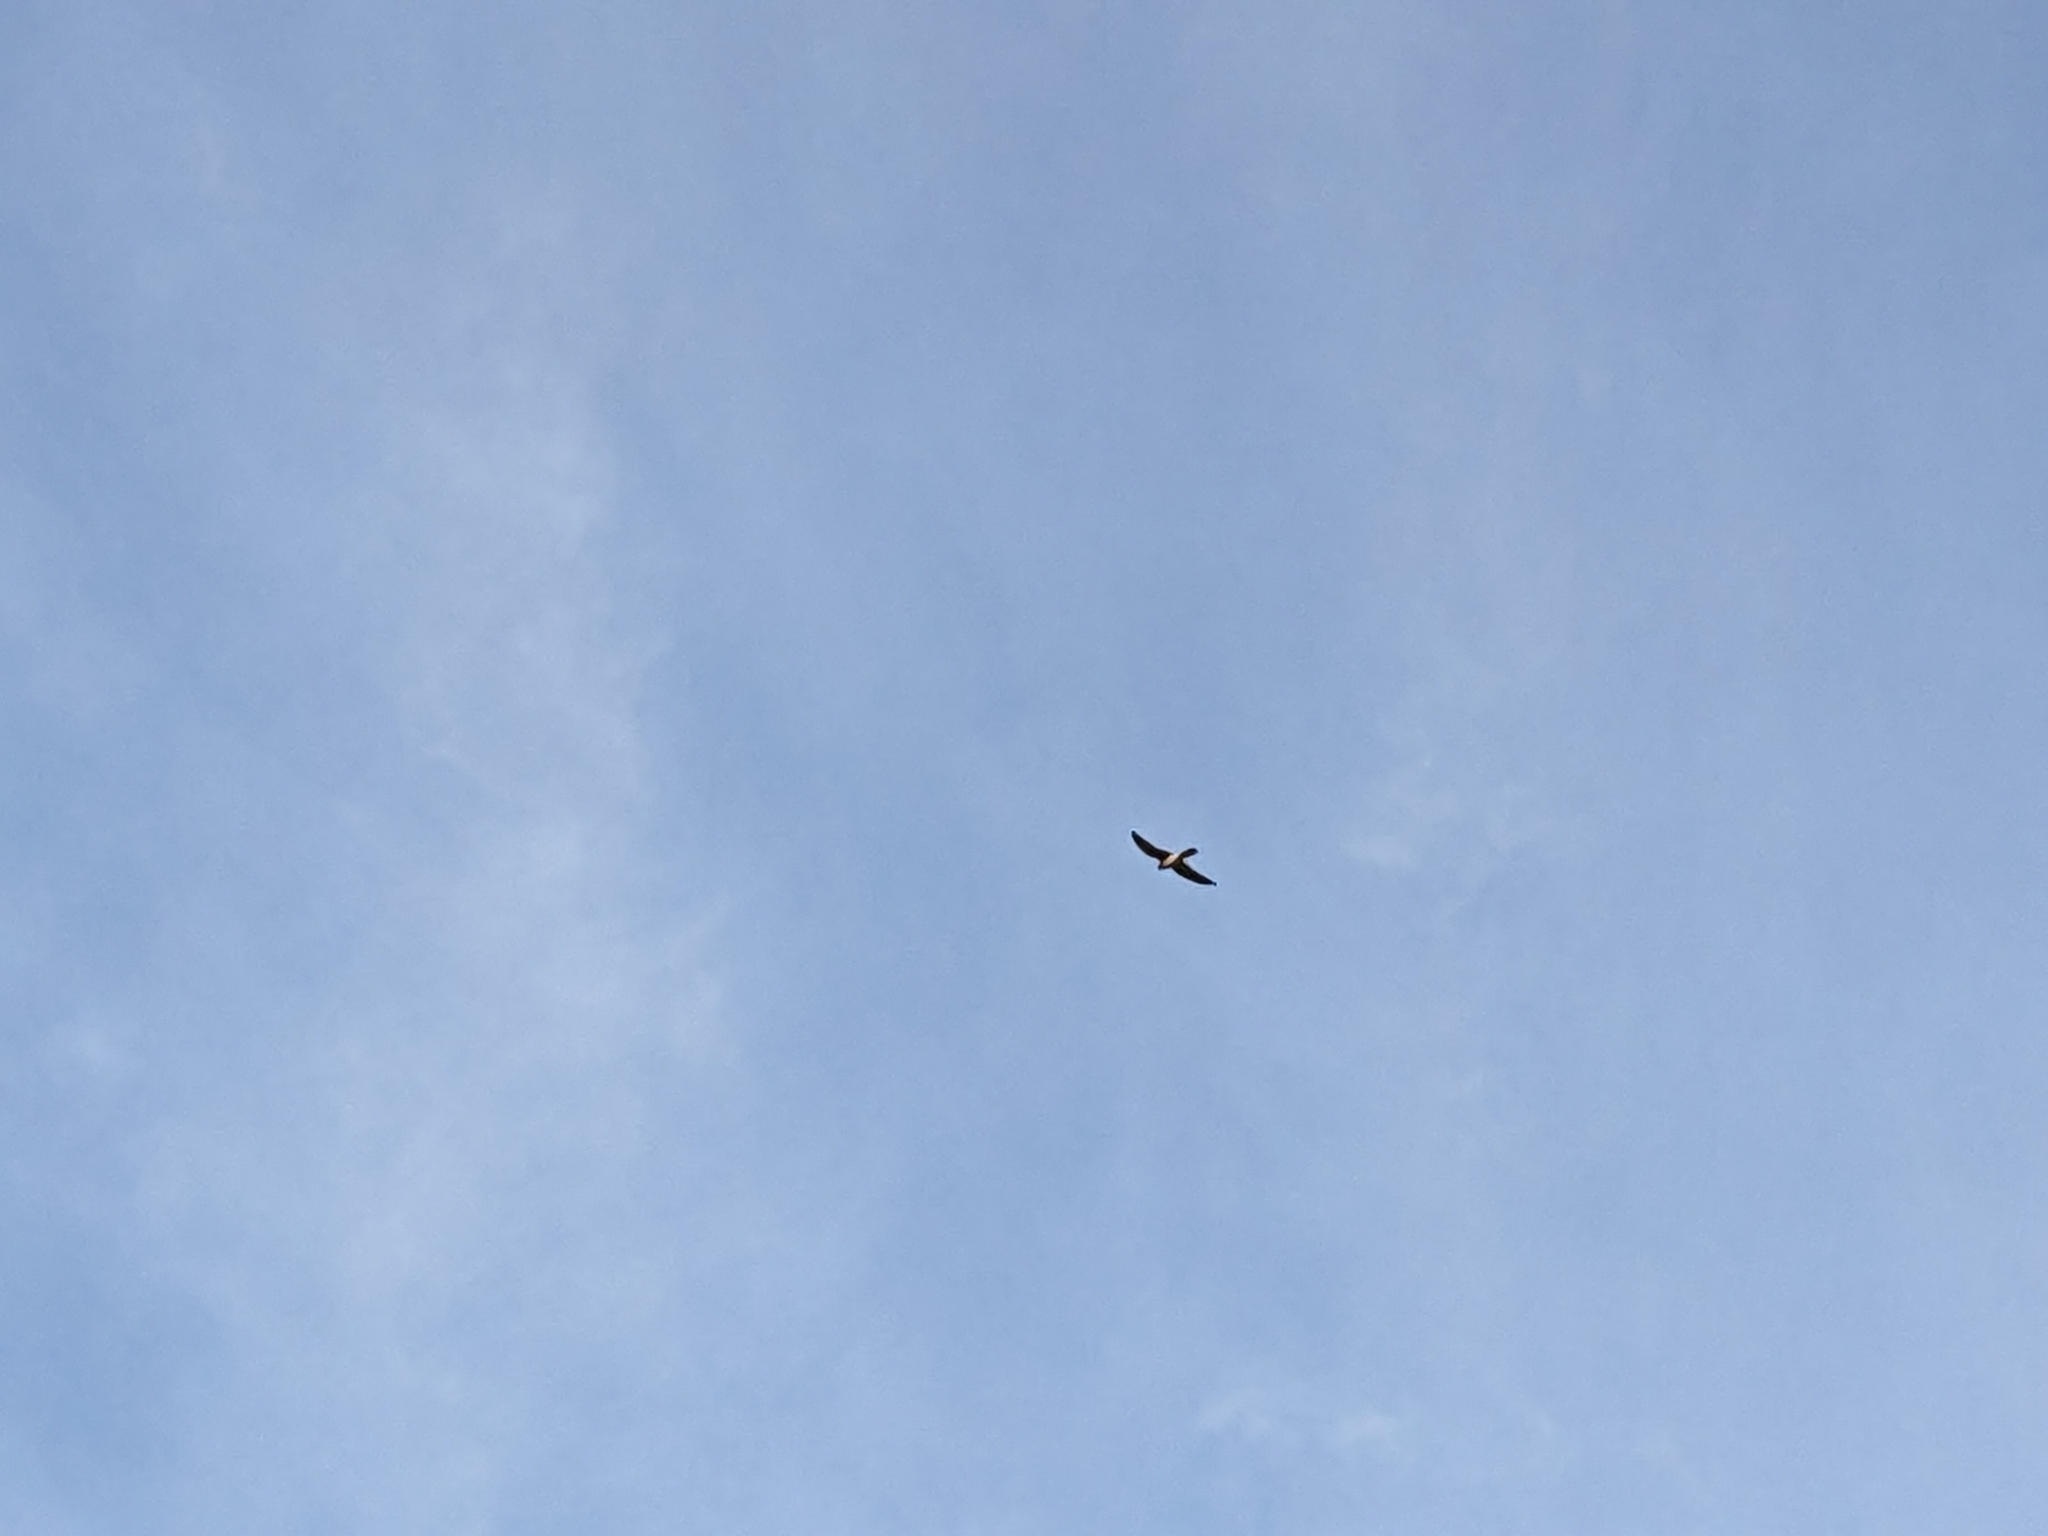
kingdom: Animalia
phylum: Chordata
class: Aves
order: Falconiformes
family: Falconidae
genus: Falco
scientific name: Falco cenchroides
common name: Nankeen kestrel
